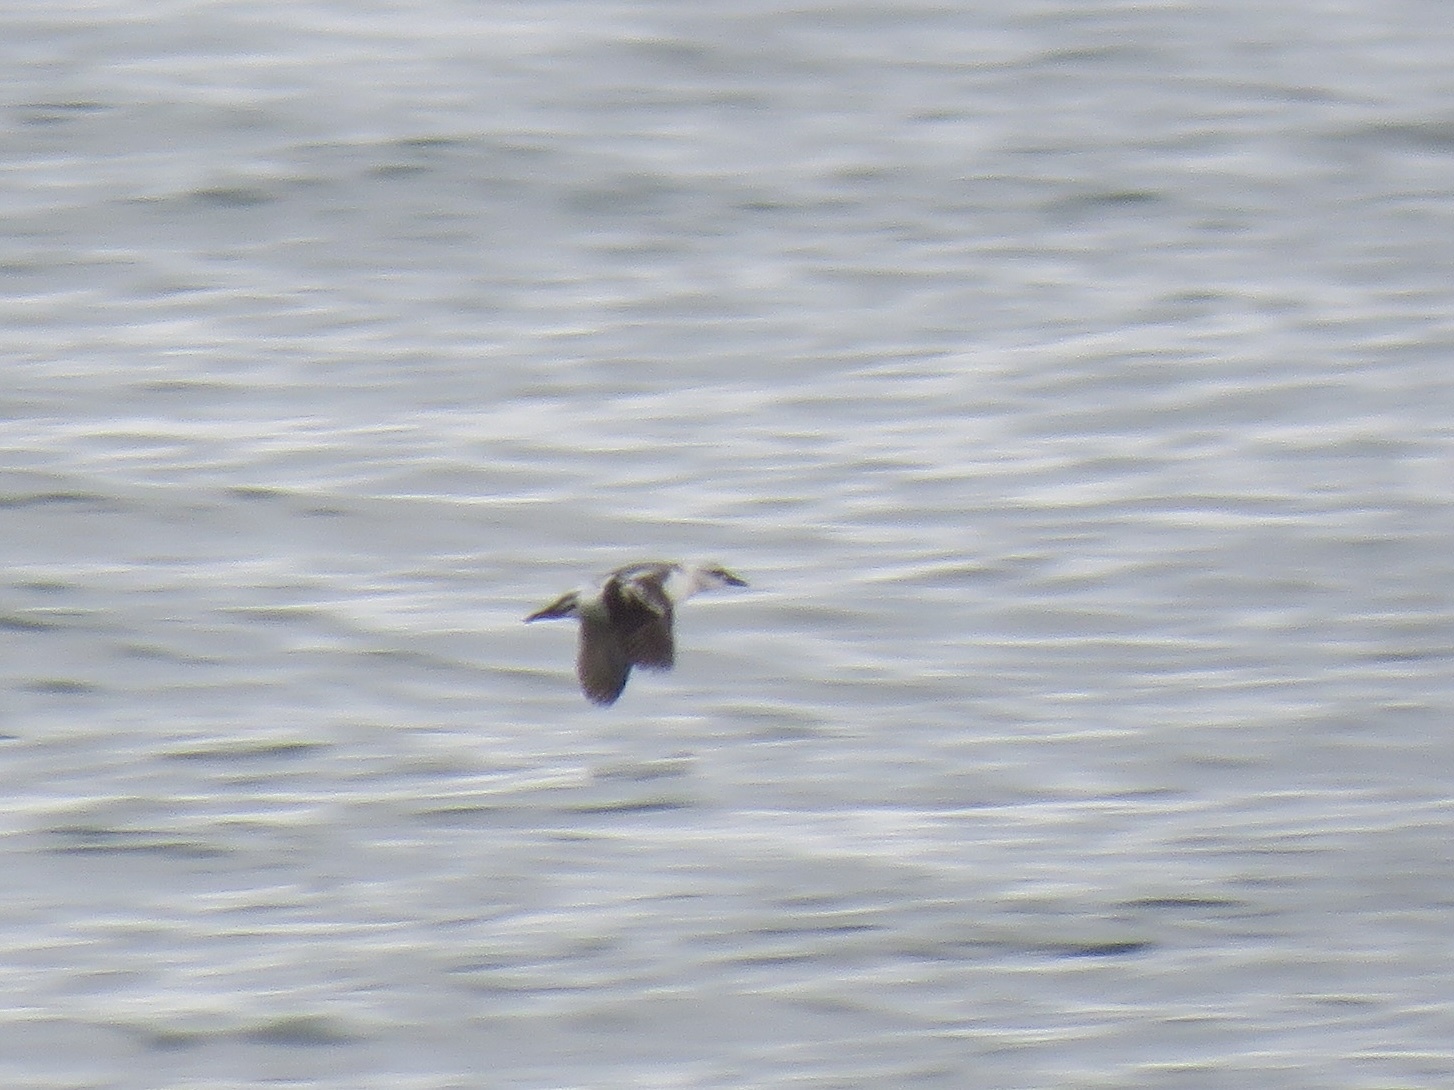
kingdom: Animalia
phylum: Chordata
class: Aves
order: Charadriiformes
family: Alcidae
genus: Cepphus
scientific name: Cepphus columba
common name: Pigeon guillemot
